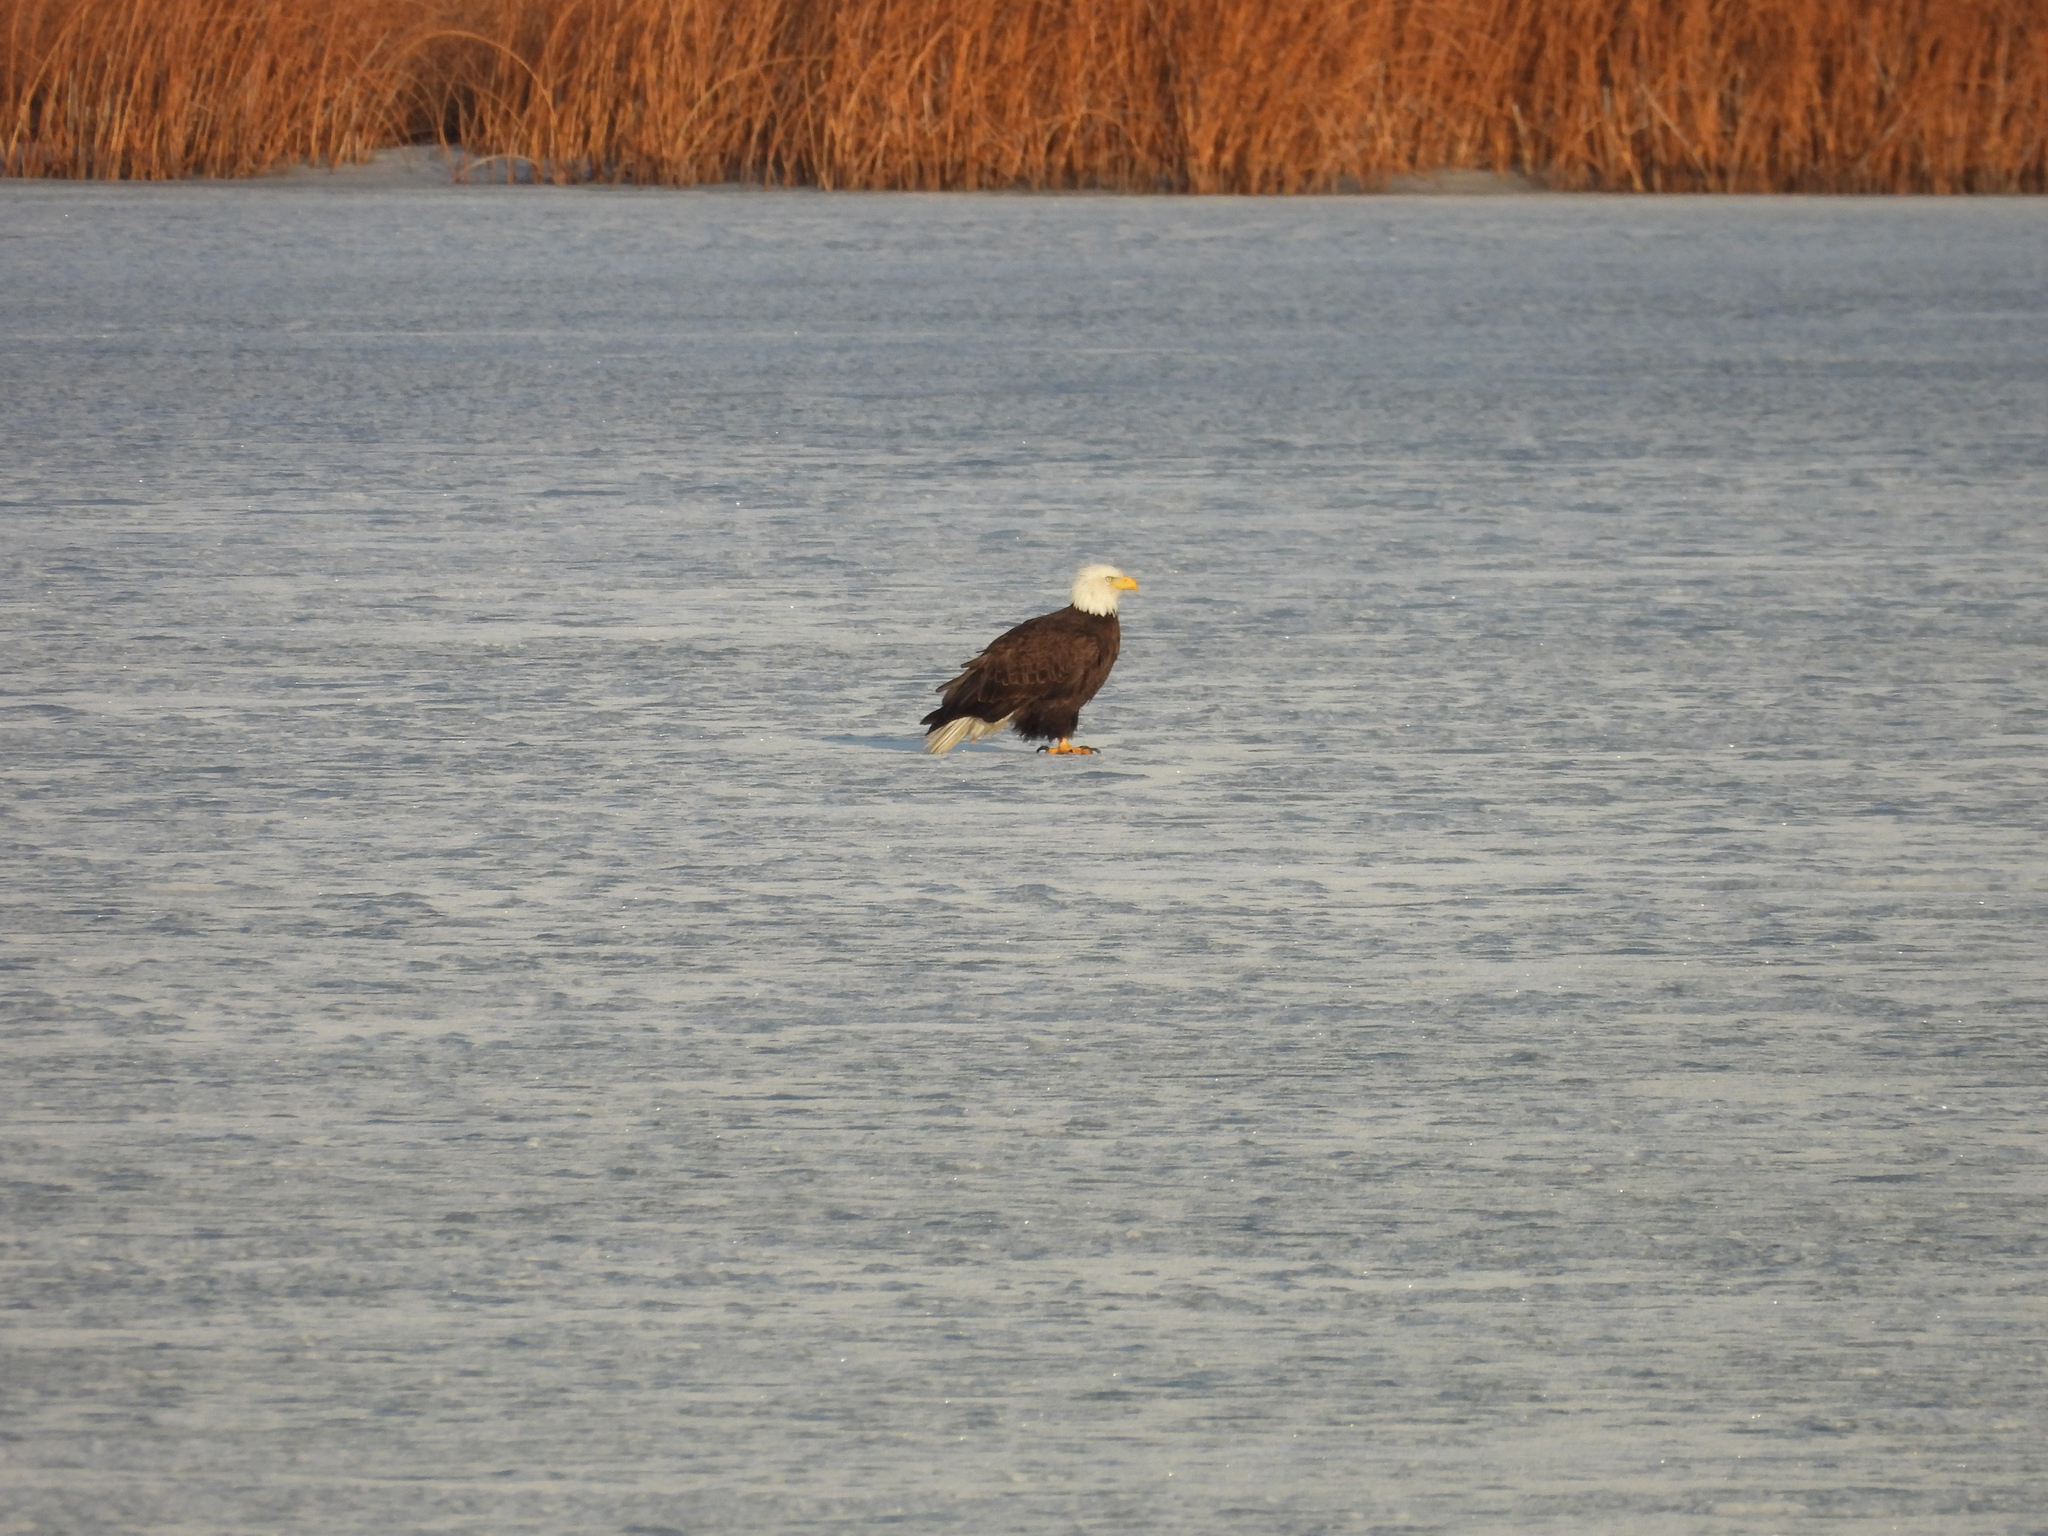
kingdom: Animalia
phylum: Chordata
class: Aves
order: Accipitriformes
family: Accipitridae
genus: Haliaeetus
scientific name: Haliaeetus leucocephalus
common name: Bald eagle
